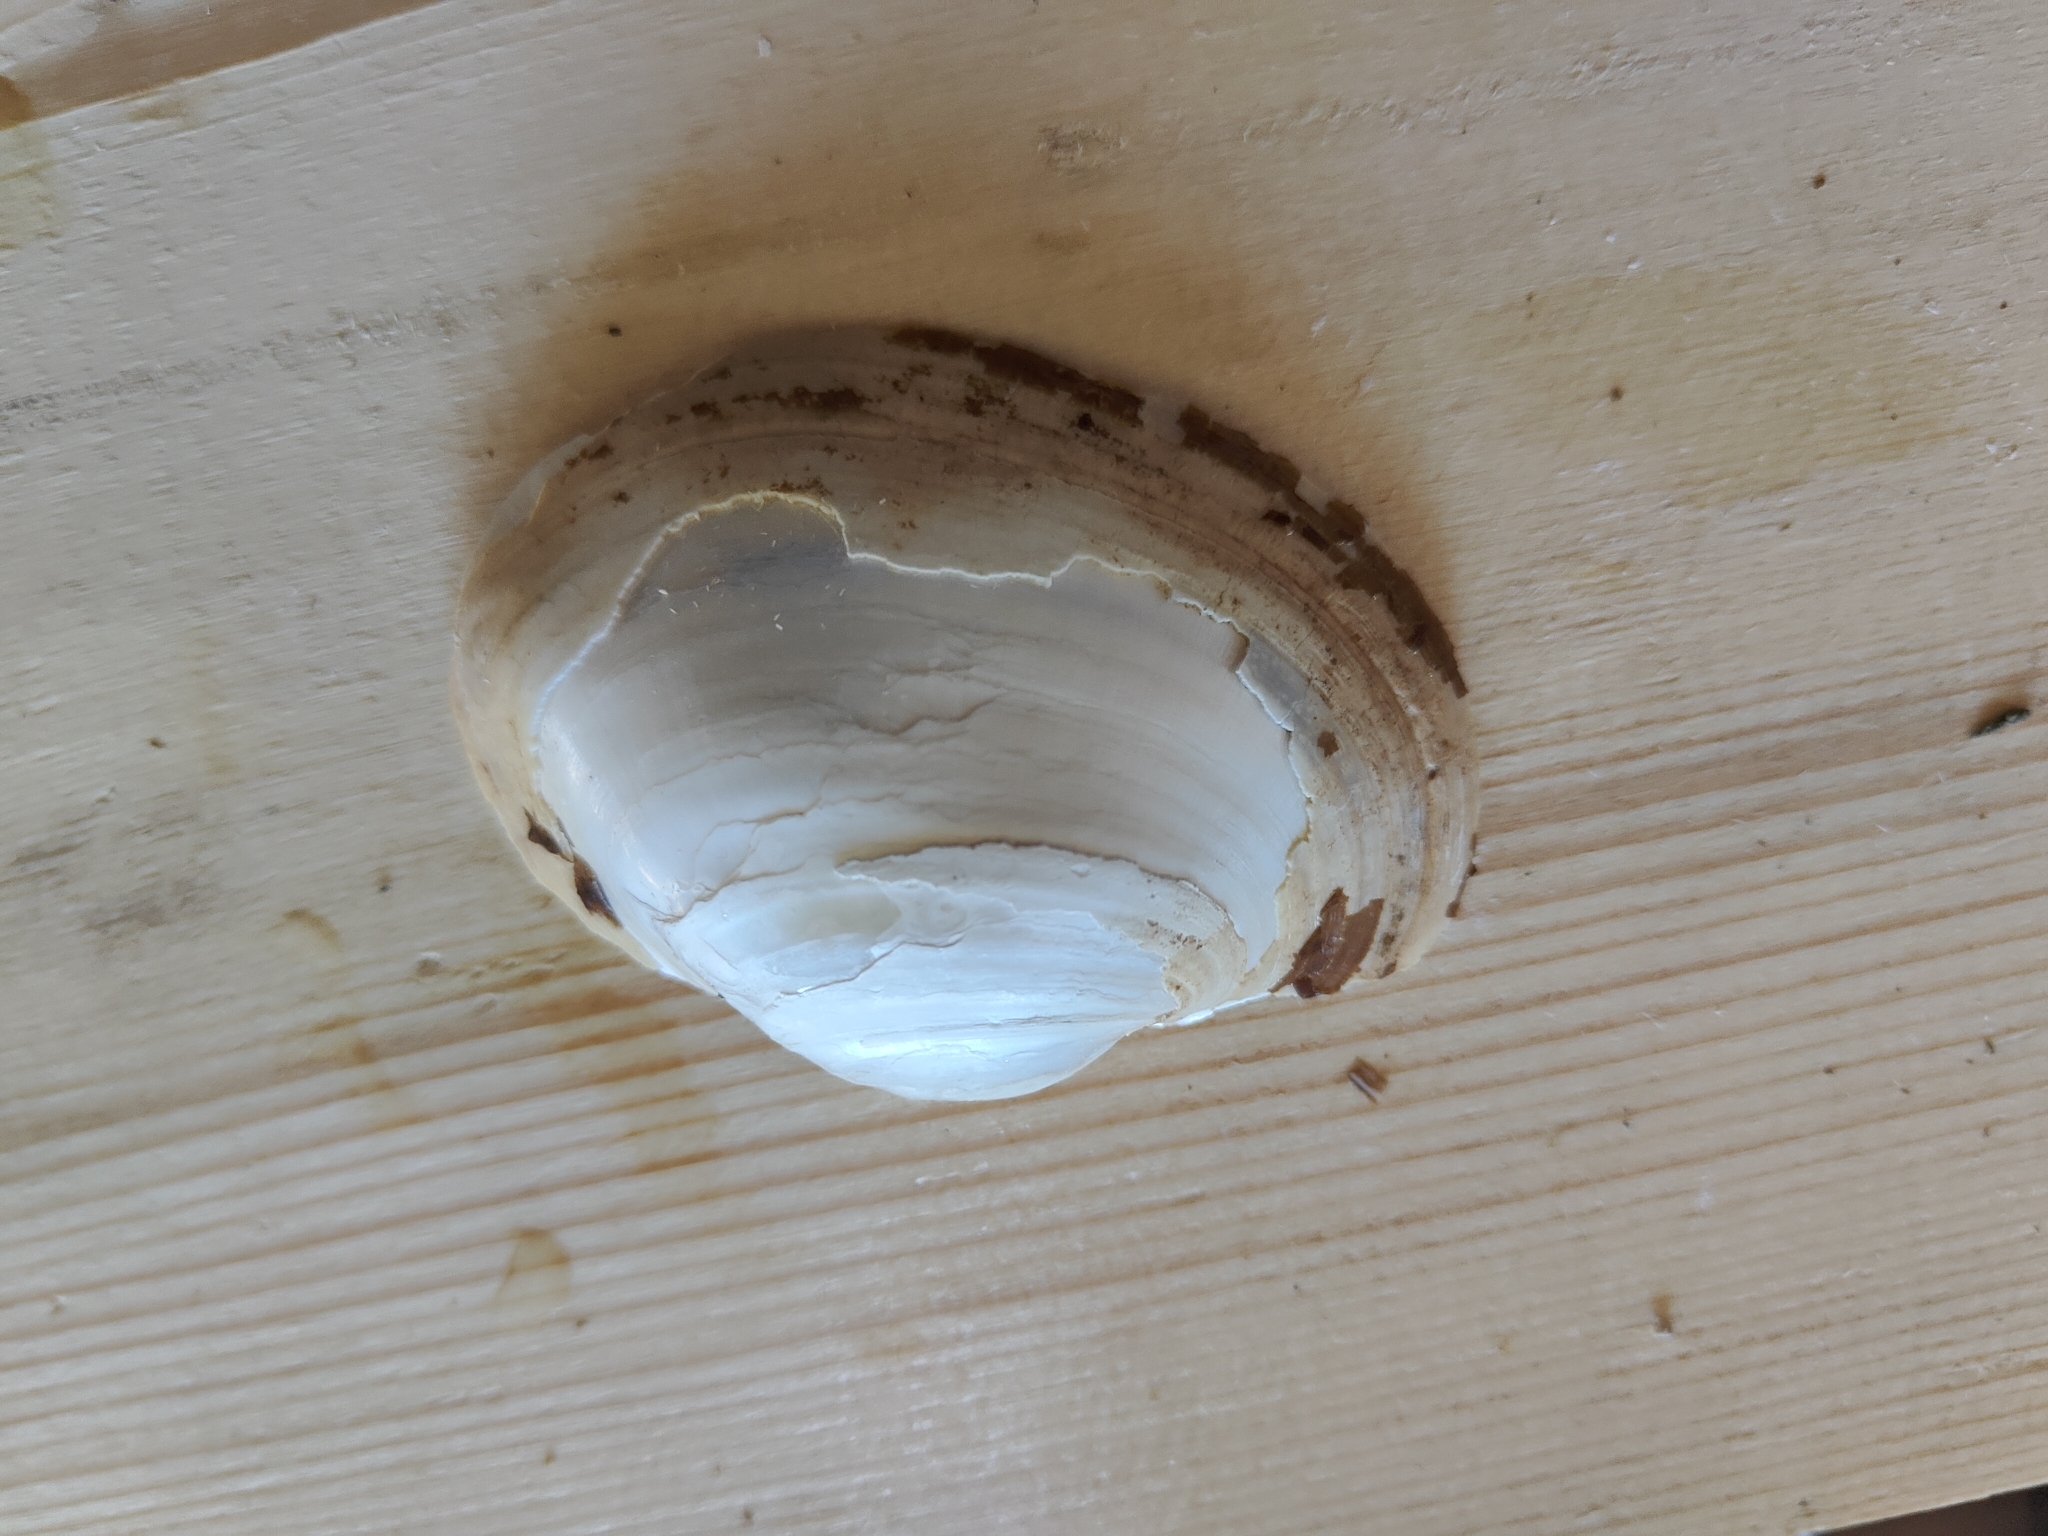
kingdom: Animalia
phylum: Mollusca
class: Bivalvia
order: Unionida
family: Unionidae
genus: Lampsilis
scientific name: Lampsilis cardium
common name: Plain pocketbook
